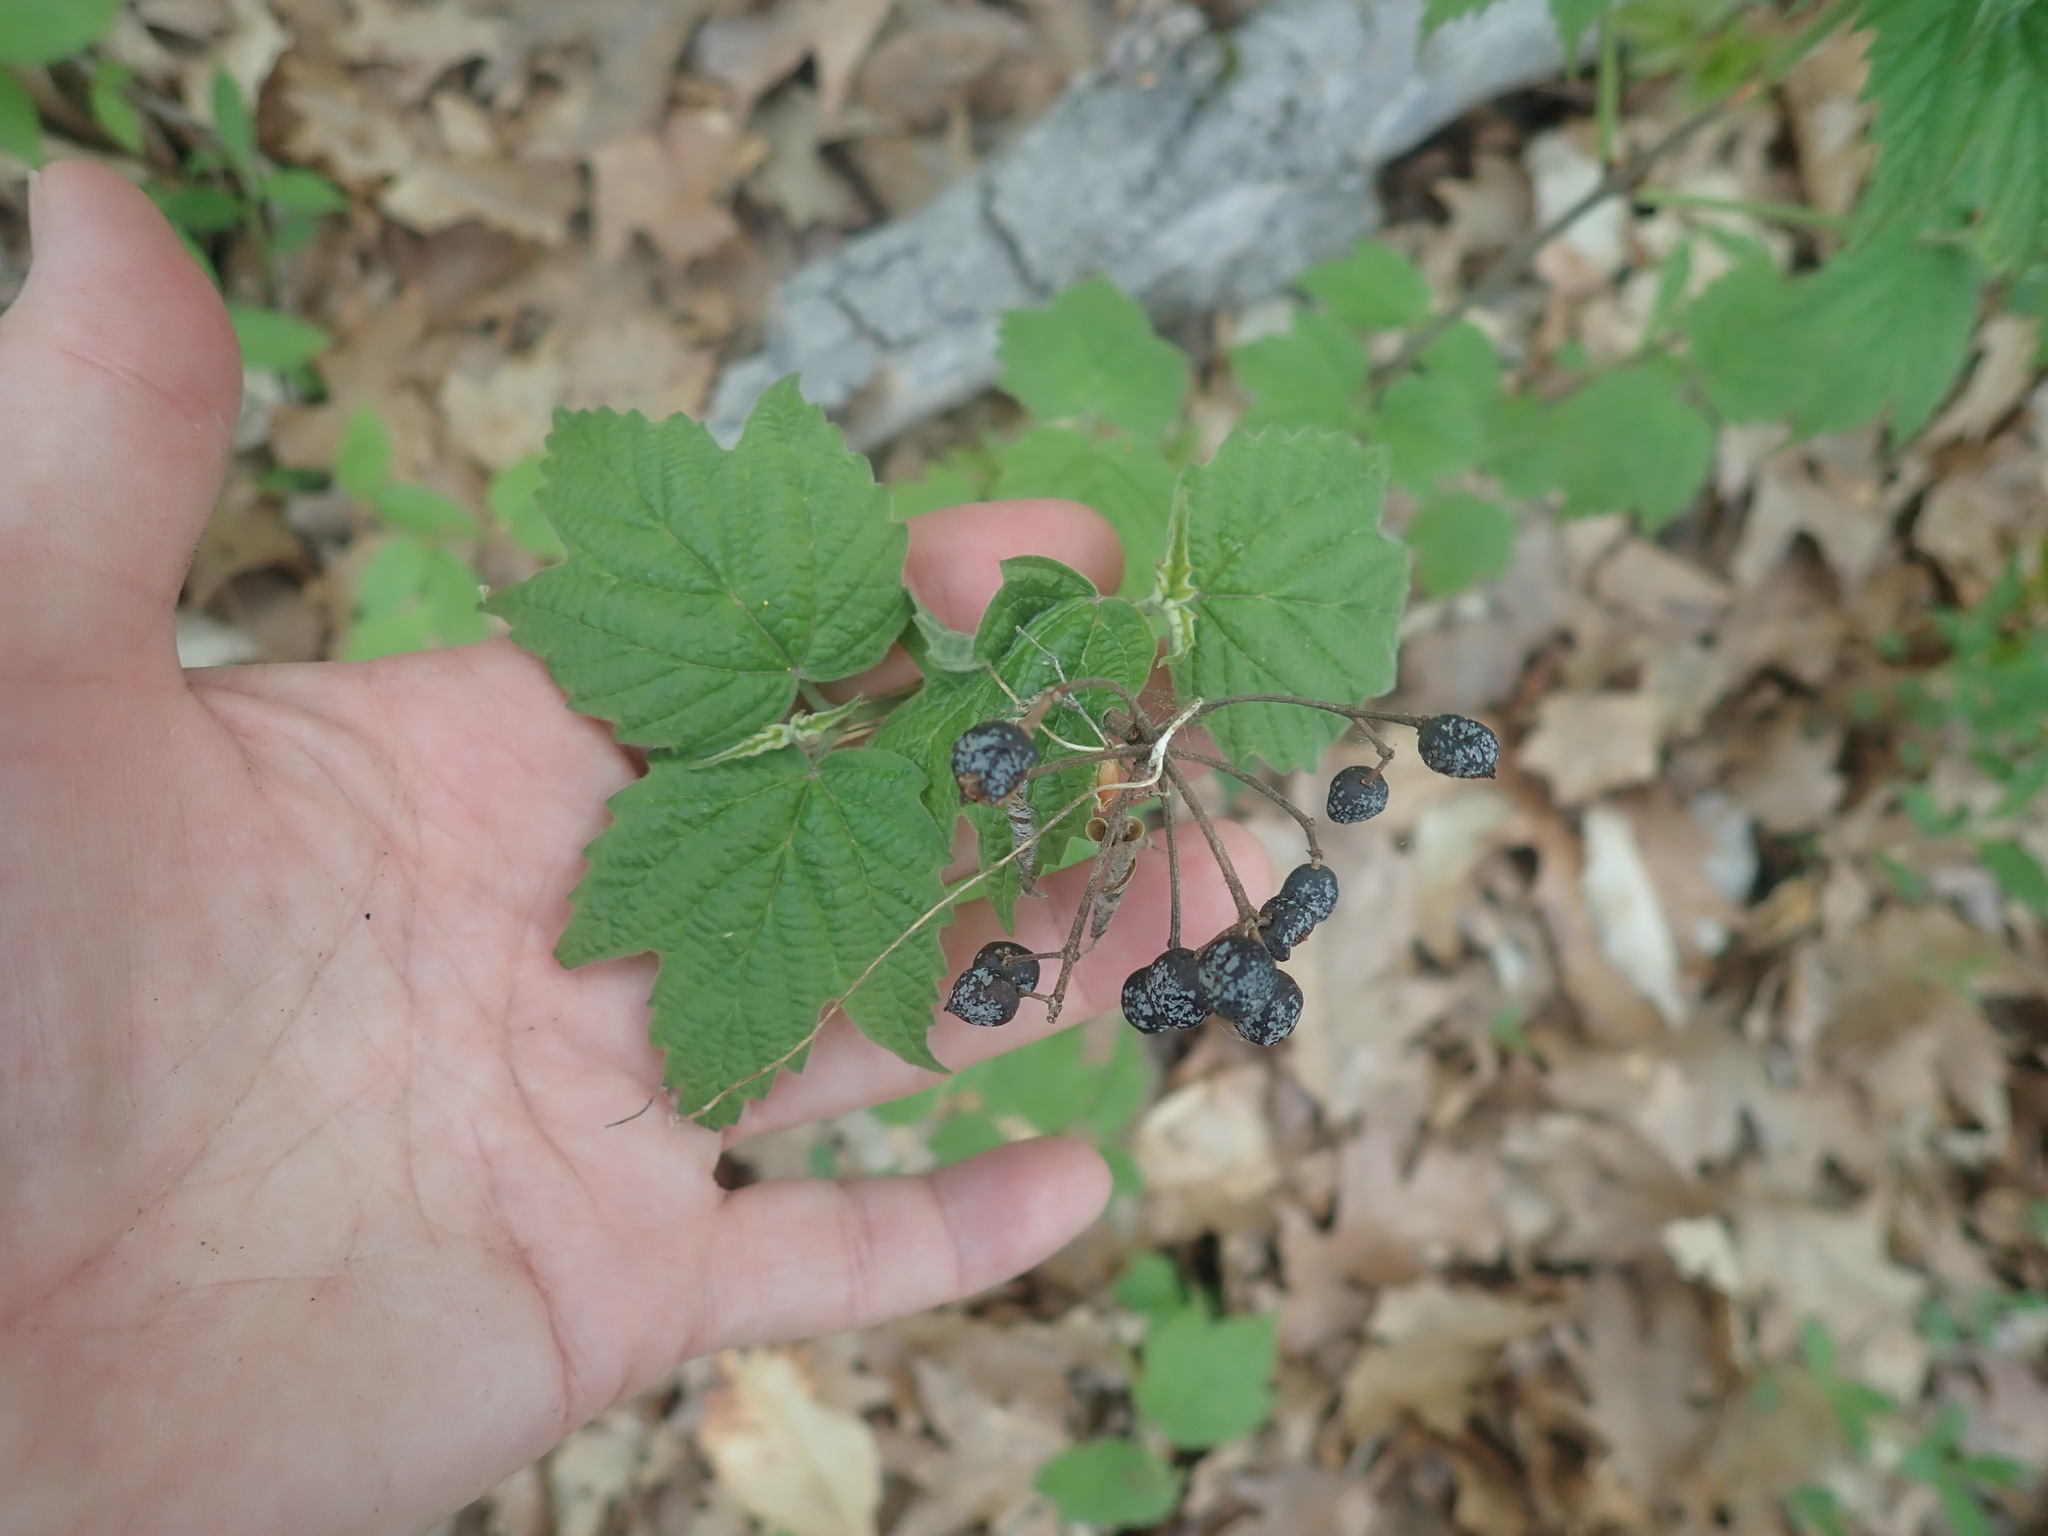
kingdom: Plantae
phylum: Tracheophyta
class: Magnoliopsida
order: Dipsacales
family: Viburnaceae
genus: Viburnum
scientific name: Viburnum acerifolium
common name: Dockmackie
